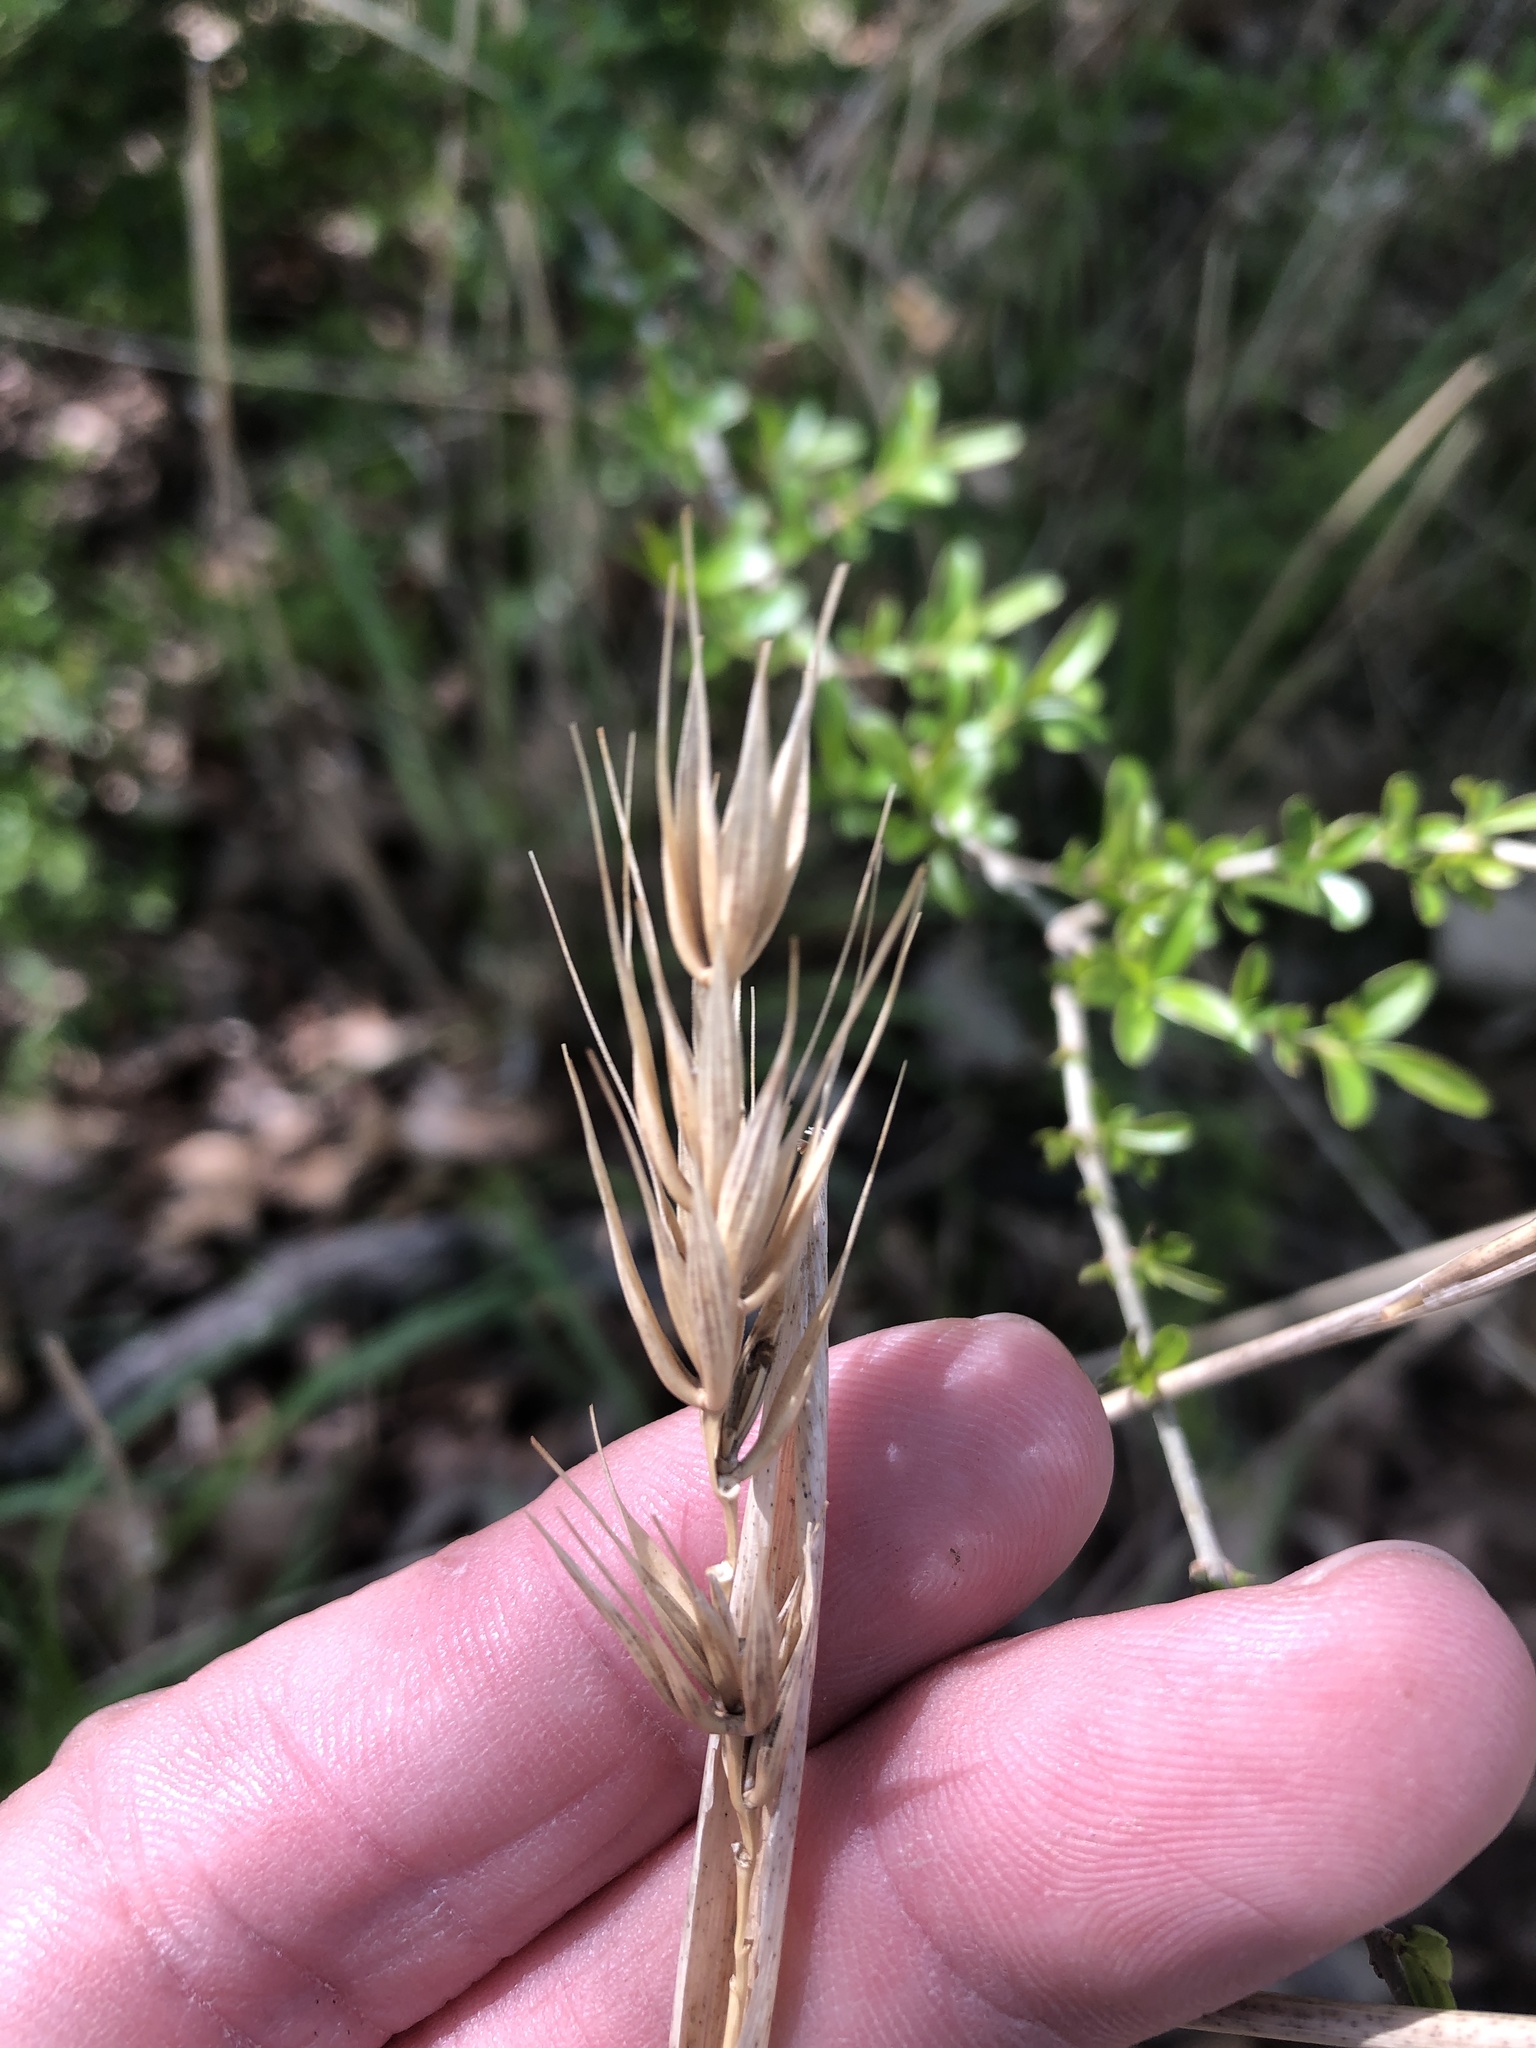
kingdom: Plantae
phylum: Tracheophyta
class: Liliopsida
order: Poales
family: Poaceae
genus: Elymus
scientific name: Elymus virginicus
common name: Common eastern wildrye
